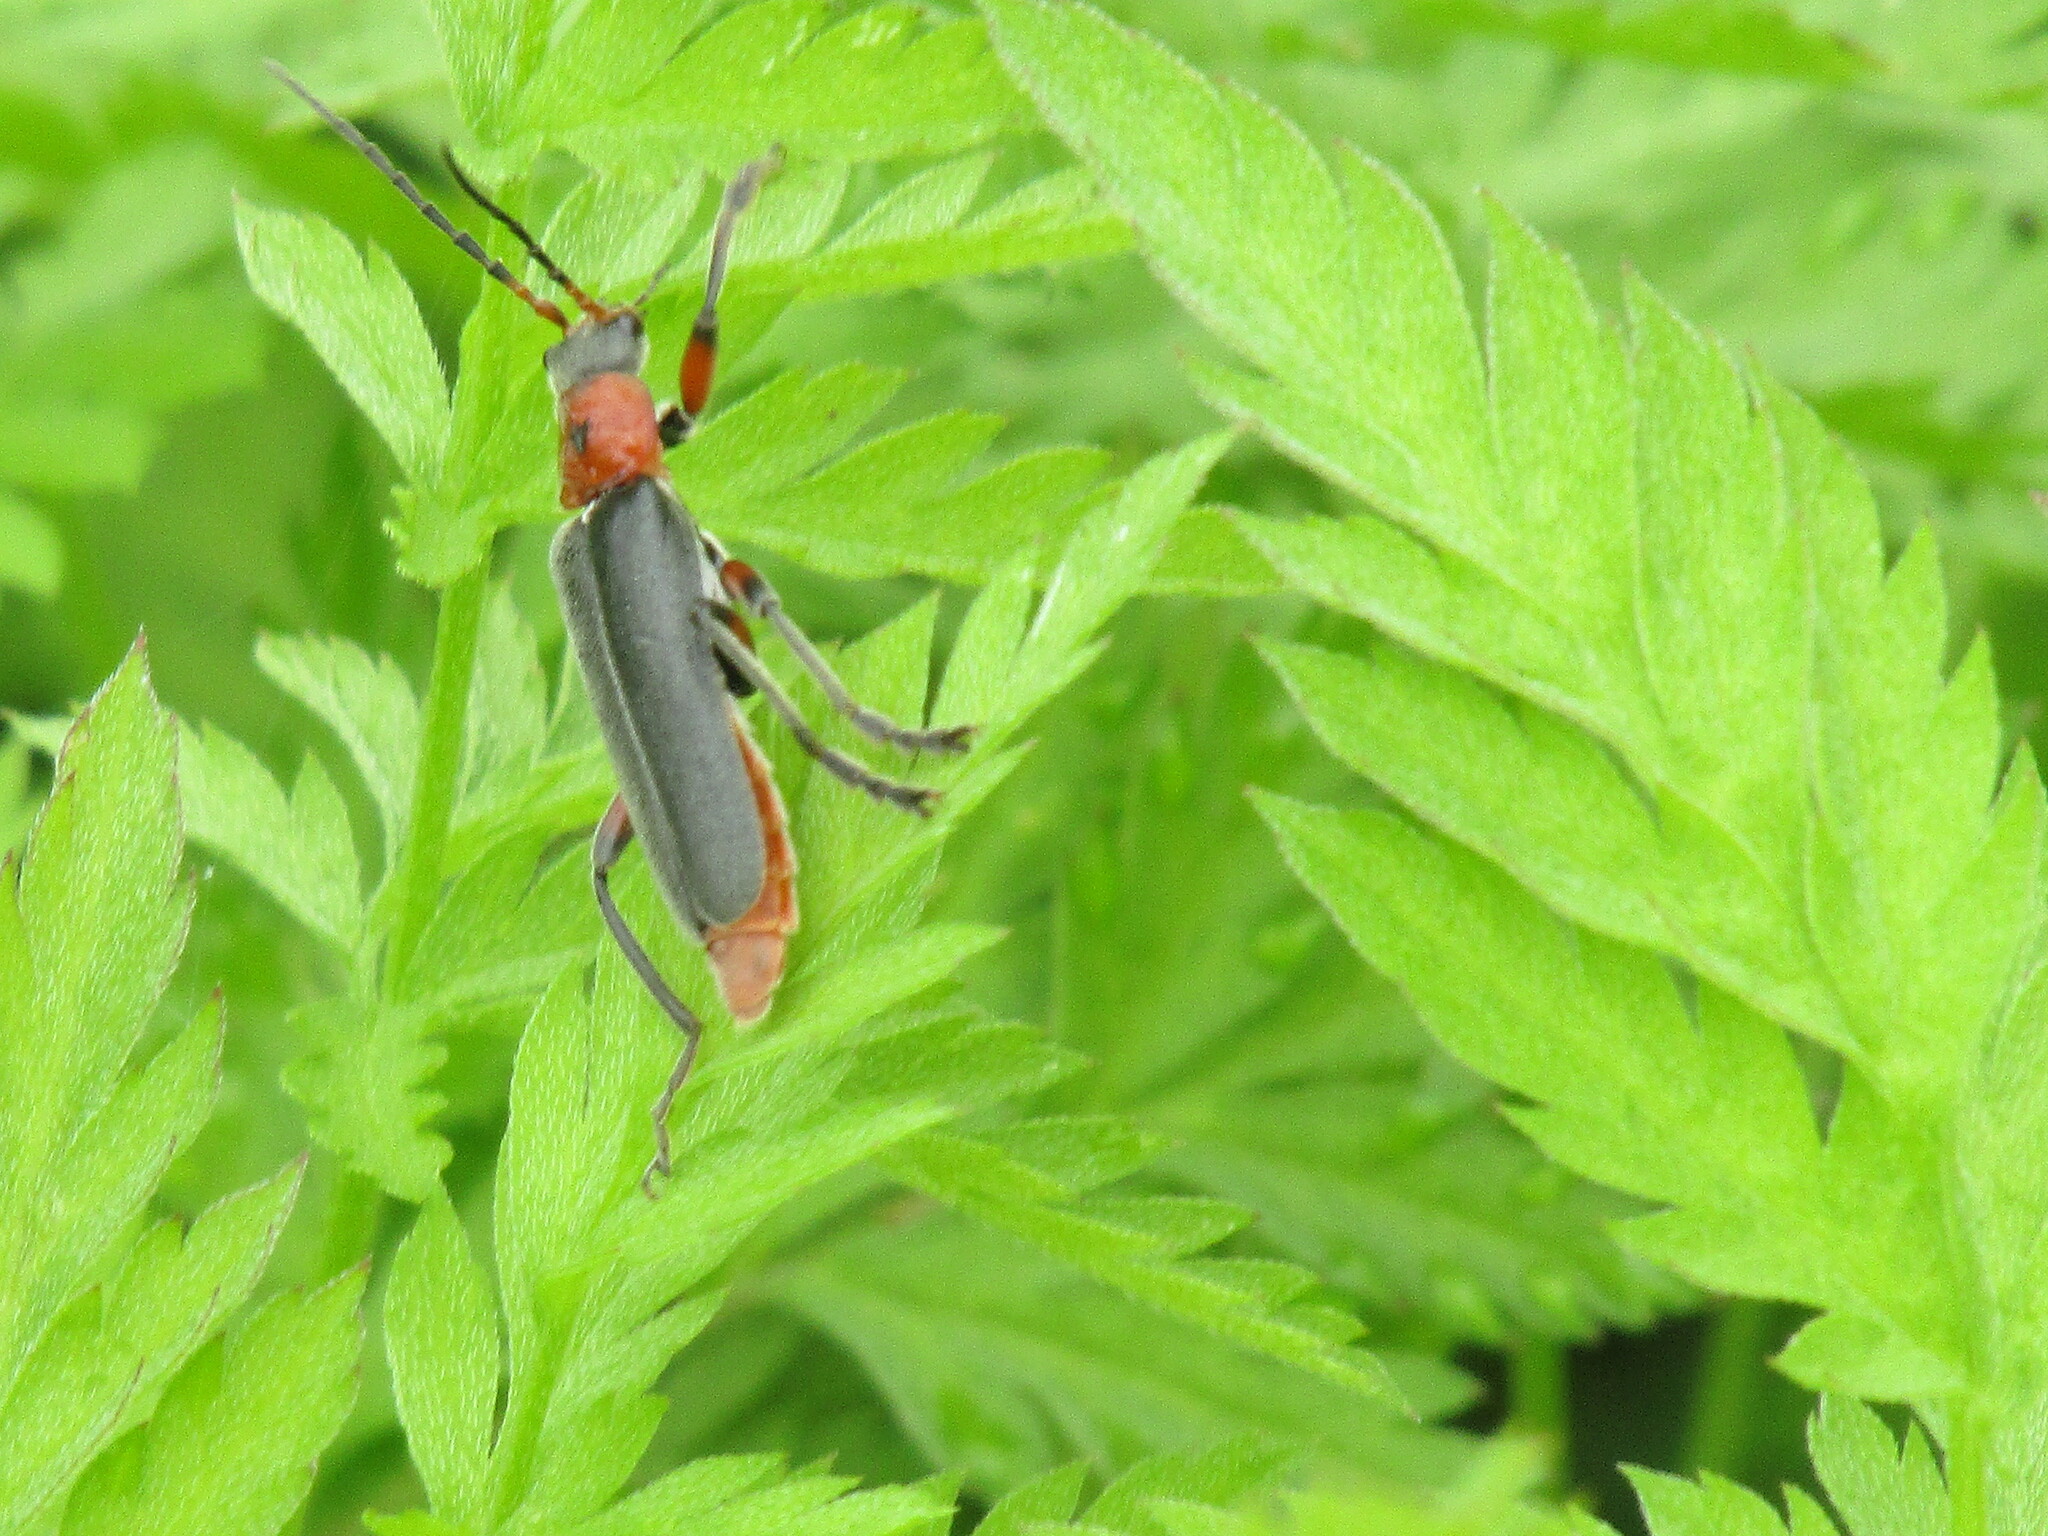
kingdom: Animalia
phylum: Arthropoda
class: Insecta
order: Coleoptera
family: Cantharidae
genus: Cantharis
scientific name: Cantharis rustica
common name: Soldier beetle
